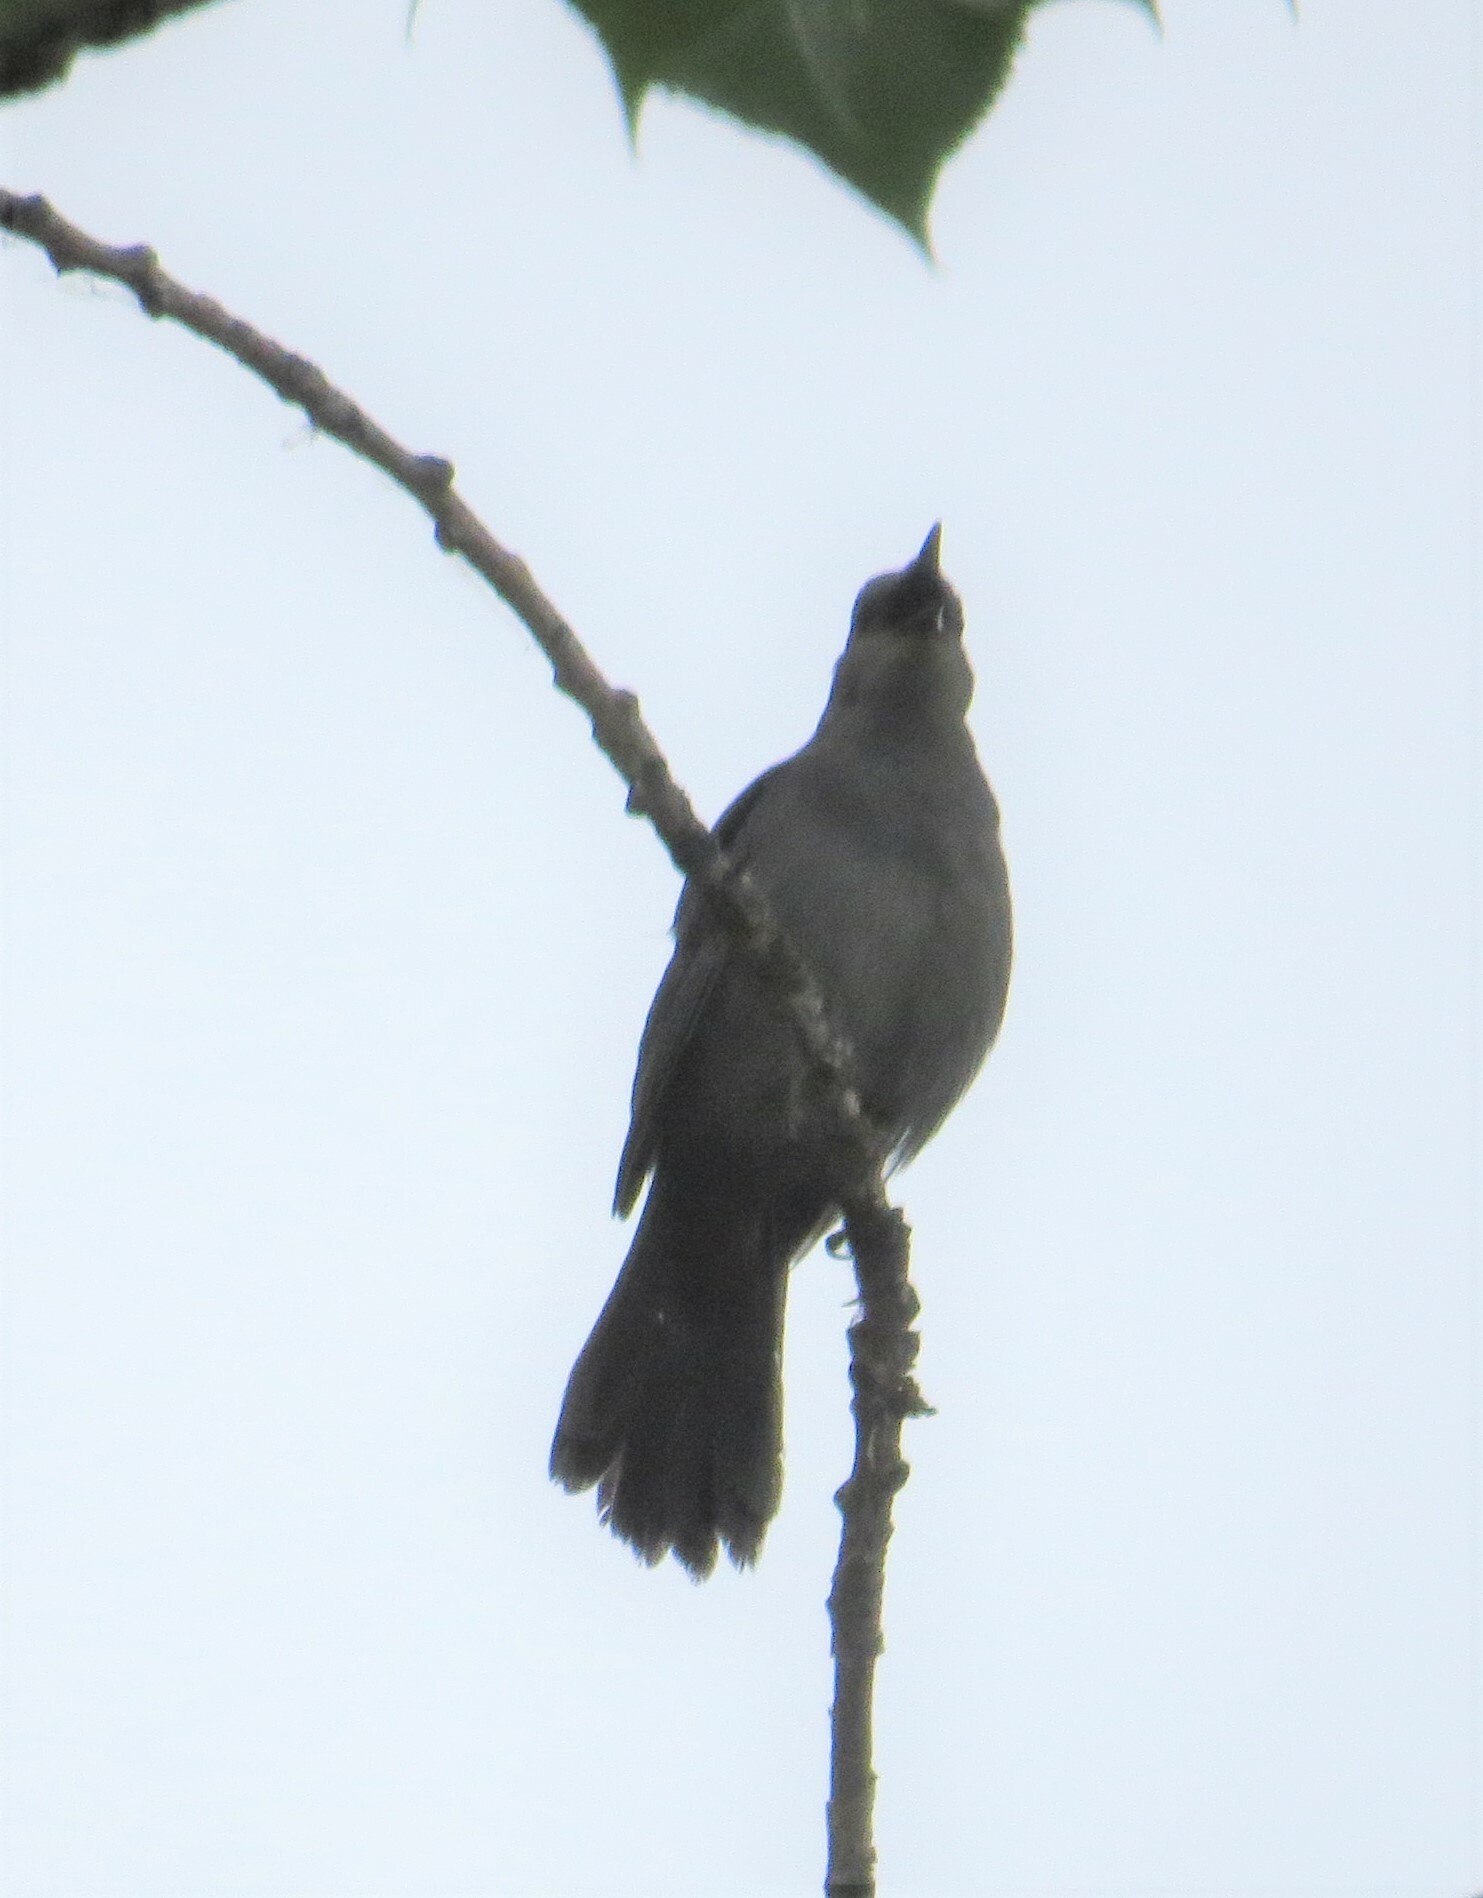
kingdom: Animalia
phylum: Chordata
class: Aves
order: Passeriformes
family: Mimidae
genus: Dumetella
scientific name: Dumetella carolinensis
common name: Gray catbird
